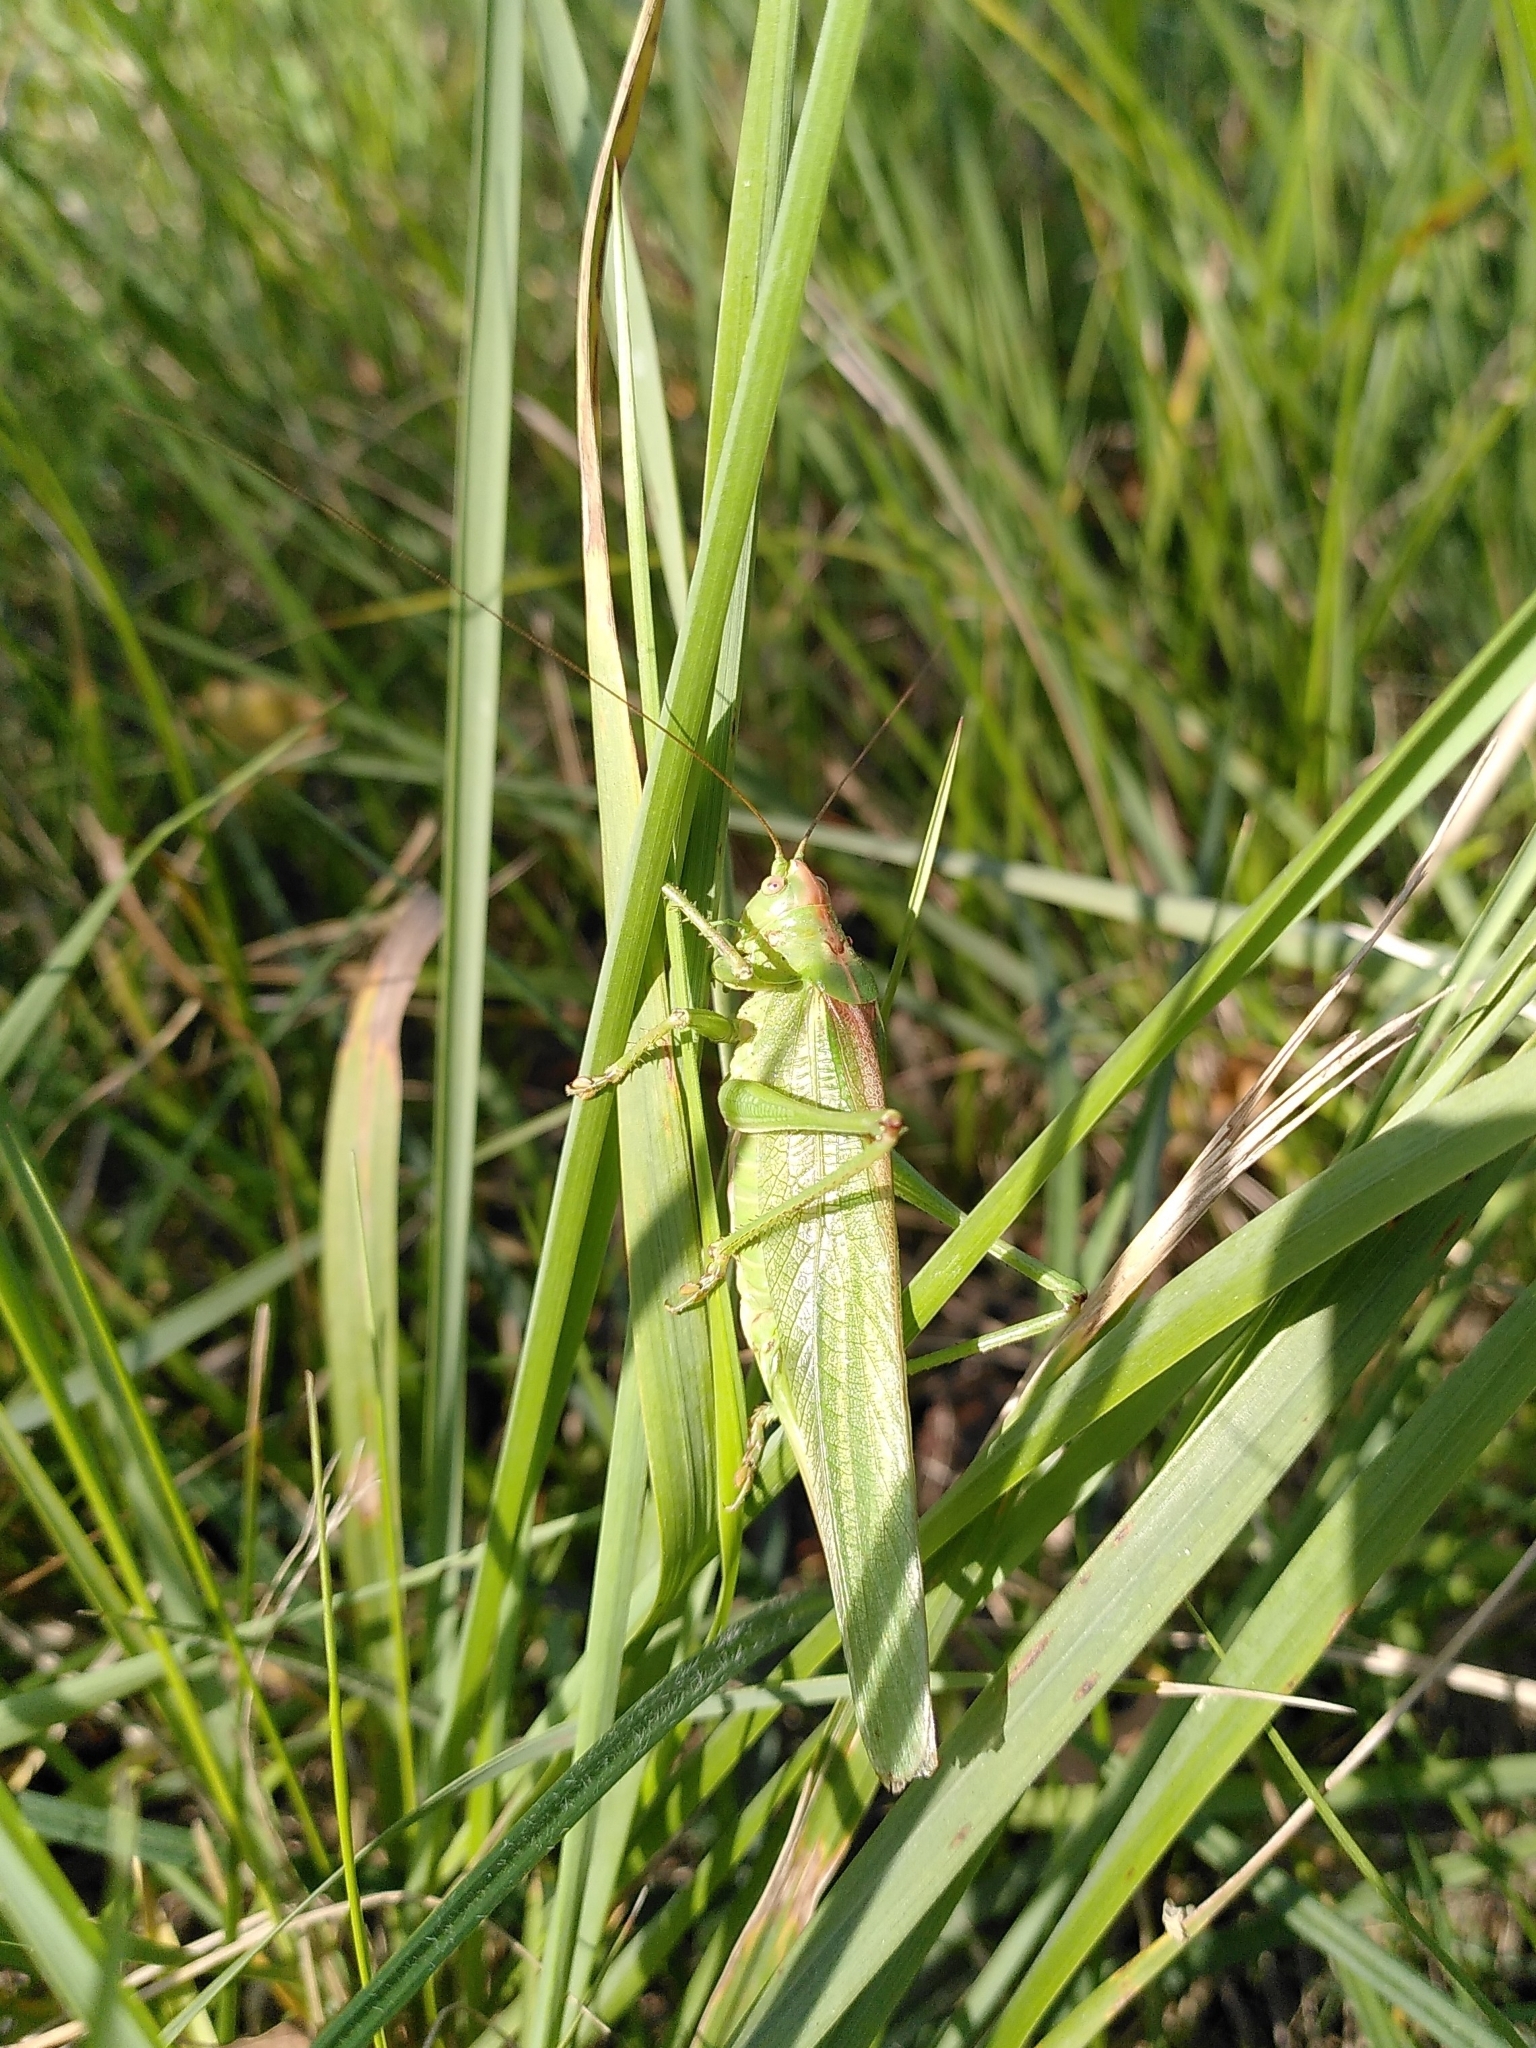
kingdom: Animalia
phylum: Arthropoda
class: Insecta
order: Orthoptera
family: Tettigoniidae
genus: Tettigonia
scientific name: Tettigonia viridissima
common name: Great green bush-cricket
